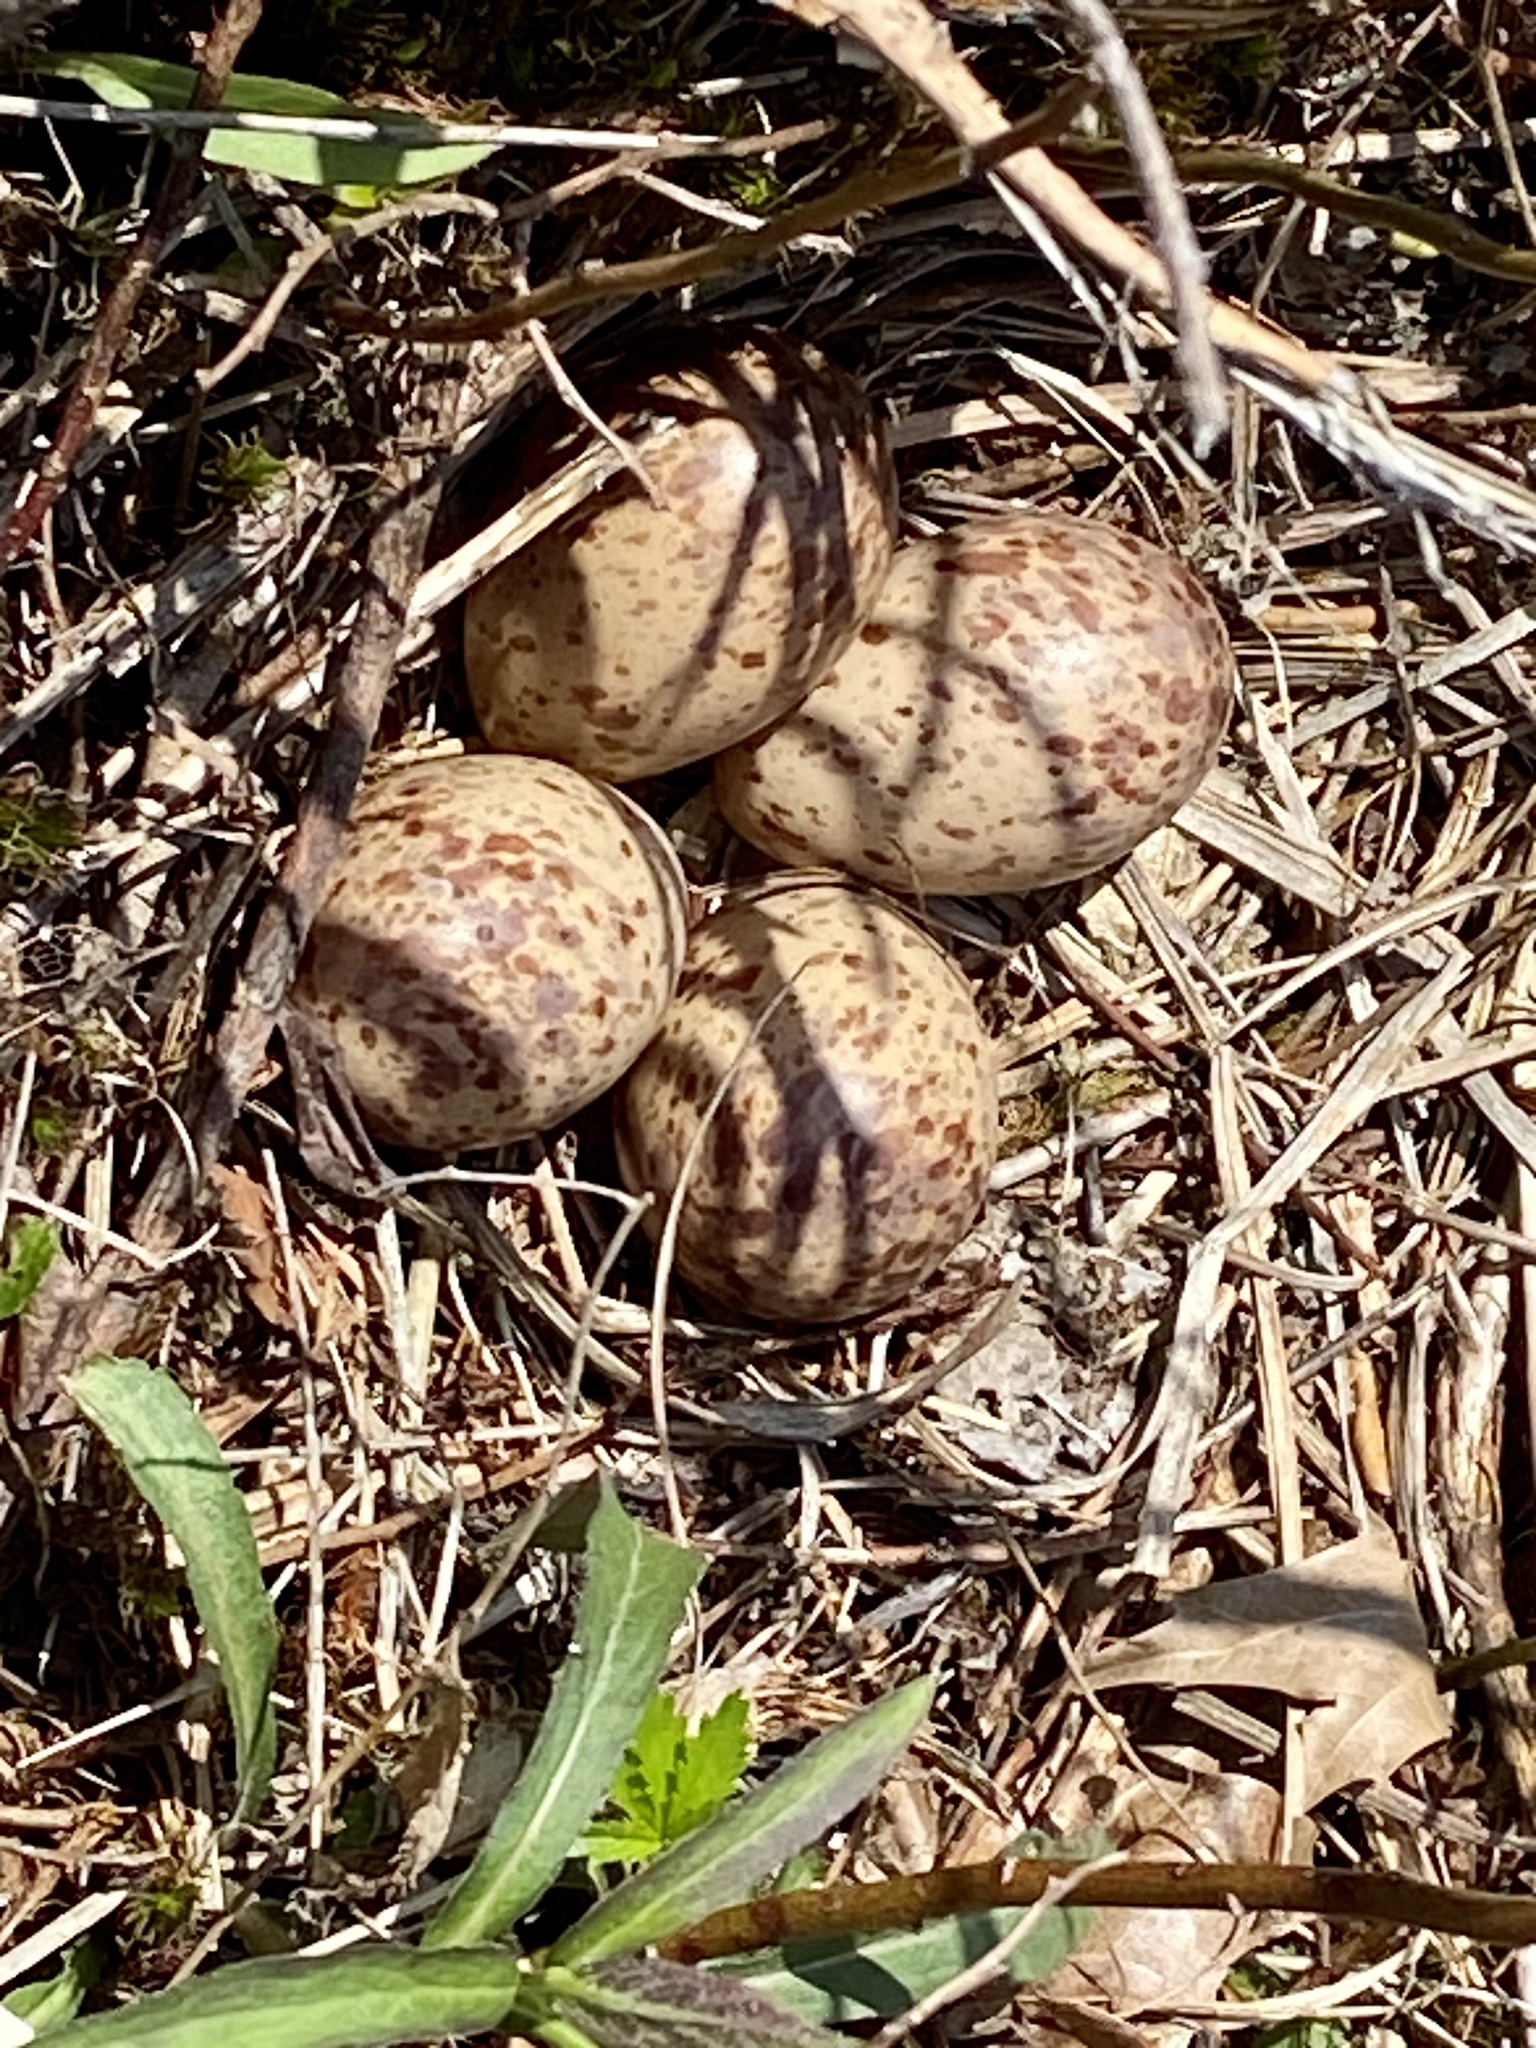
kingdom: Animalia
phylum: Chordata
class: Aves
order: Charadriiformes
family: Scolopacidae
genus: Scolopax
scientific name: Scolopax minor
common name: American woodcock
